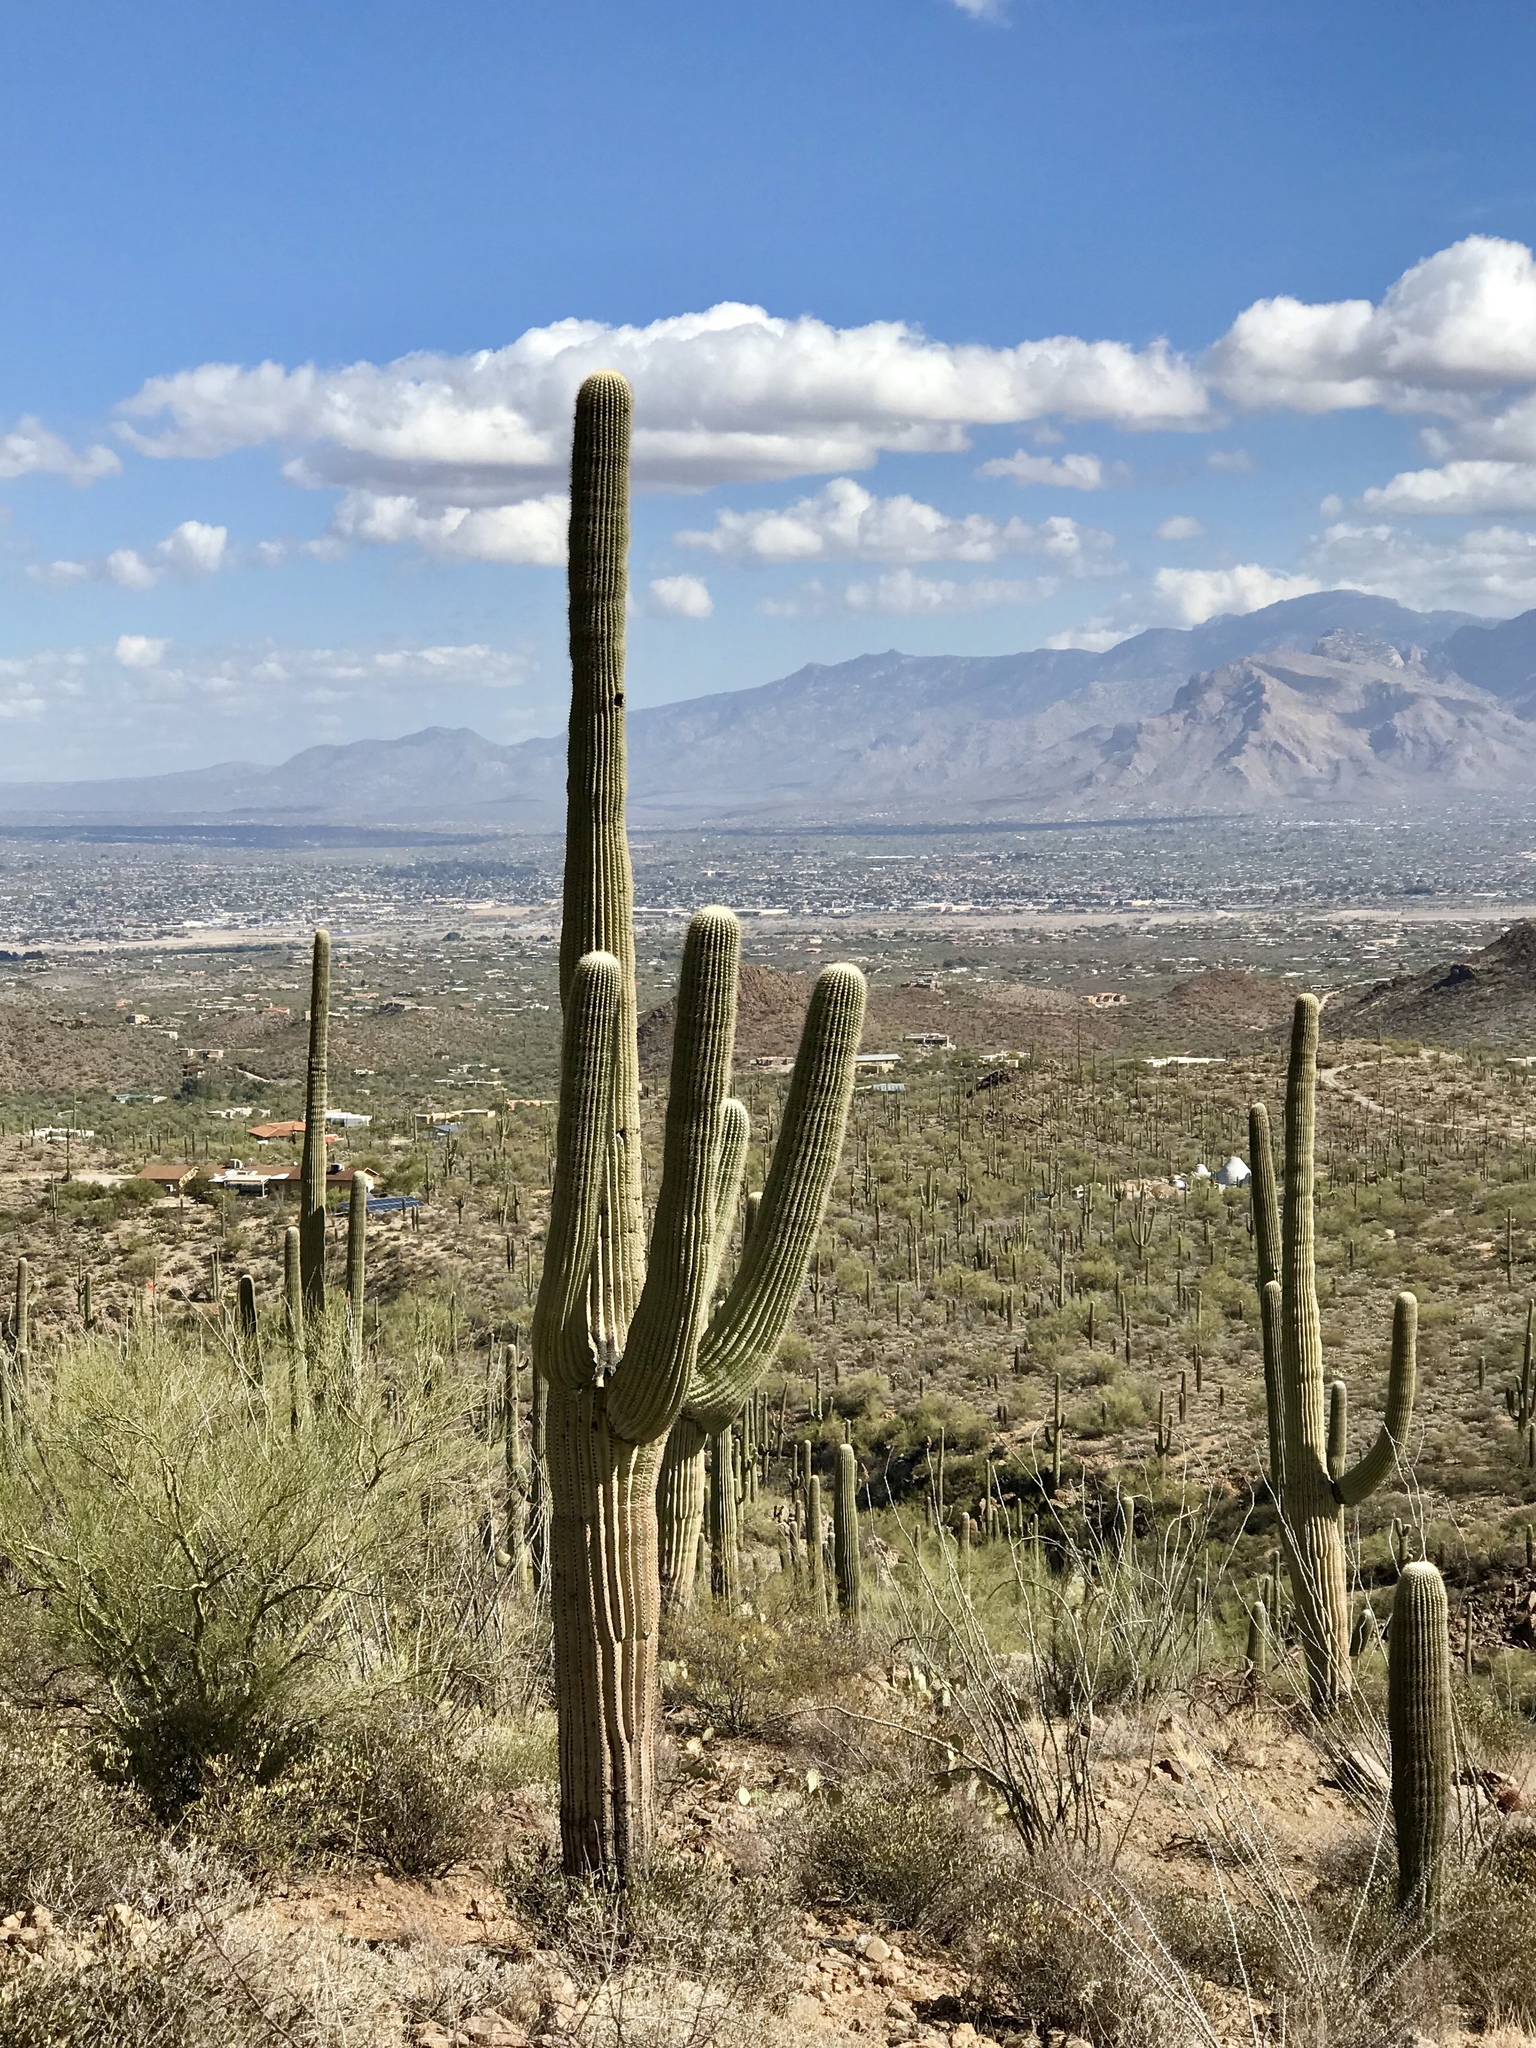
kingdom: Plantae
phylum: Tracheophyta
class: Magnoliopsida
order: Caryophyllales
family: Cactaceae
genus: Carnegiea
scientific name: Carnegiea gigantea
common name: Saguaro
